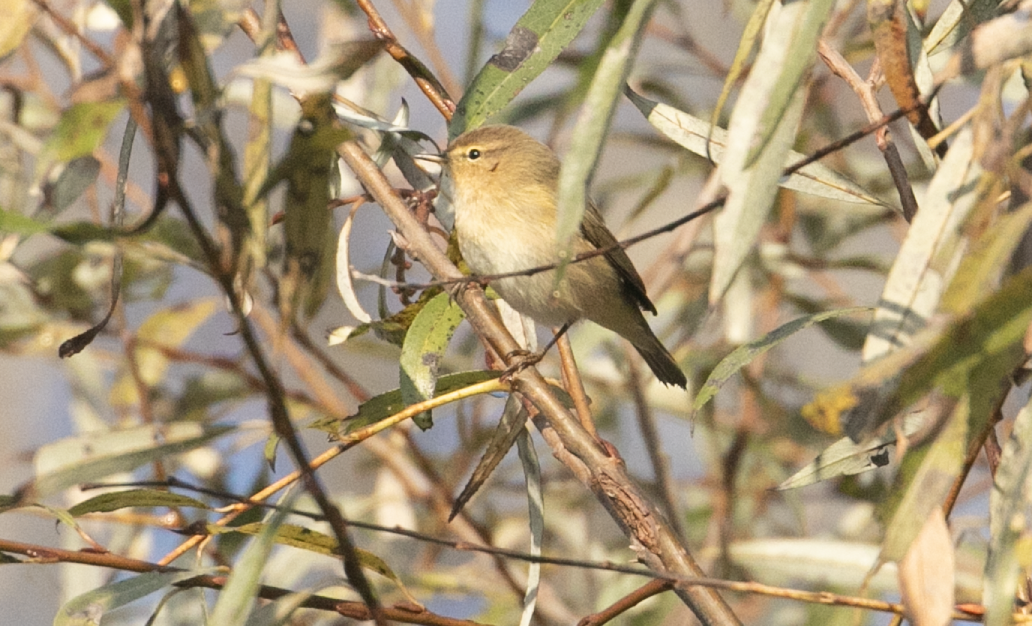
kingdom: Animalia
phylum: Chordata
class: Aves
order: Passeriformes
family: Phylloscopidae
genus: Phylloscopus
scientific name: Phylloscopus collybita
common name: Common chiffchaff
